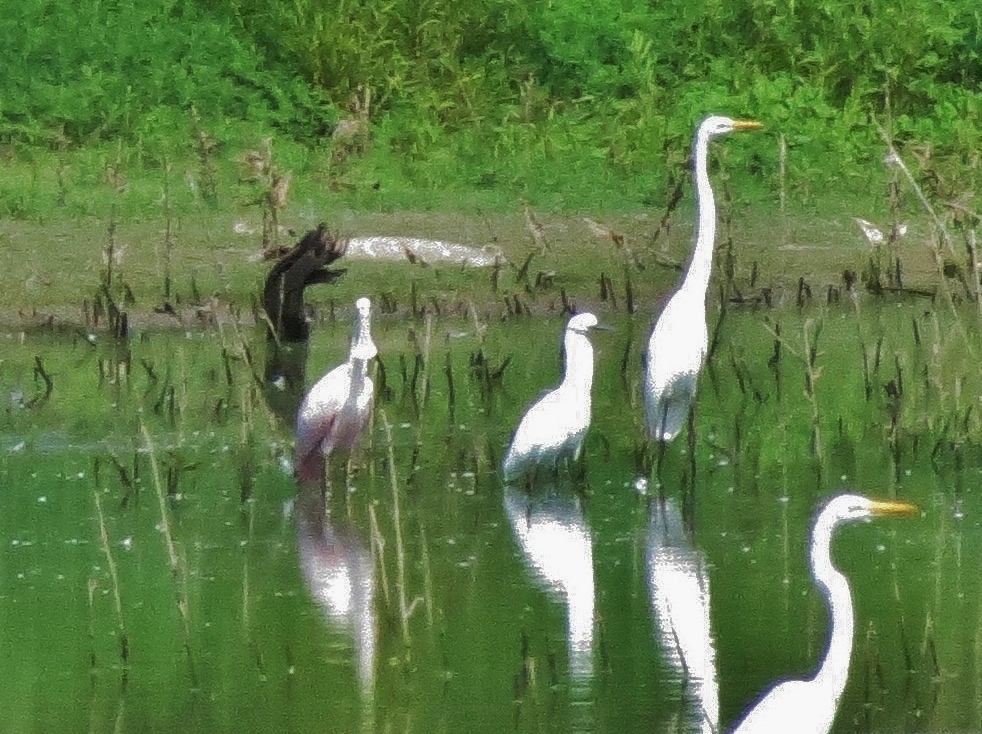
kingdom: Animalia
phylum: Chordata
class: Aves
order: Pelecaniformes
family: Threskiornithidae
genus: Platalea
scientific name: Platalea ajaja
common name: Roseate spoonbill
